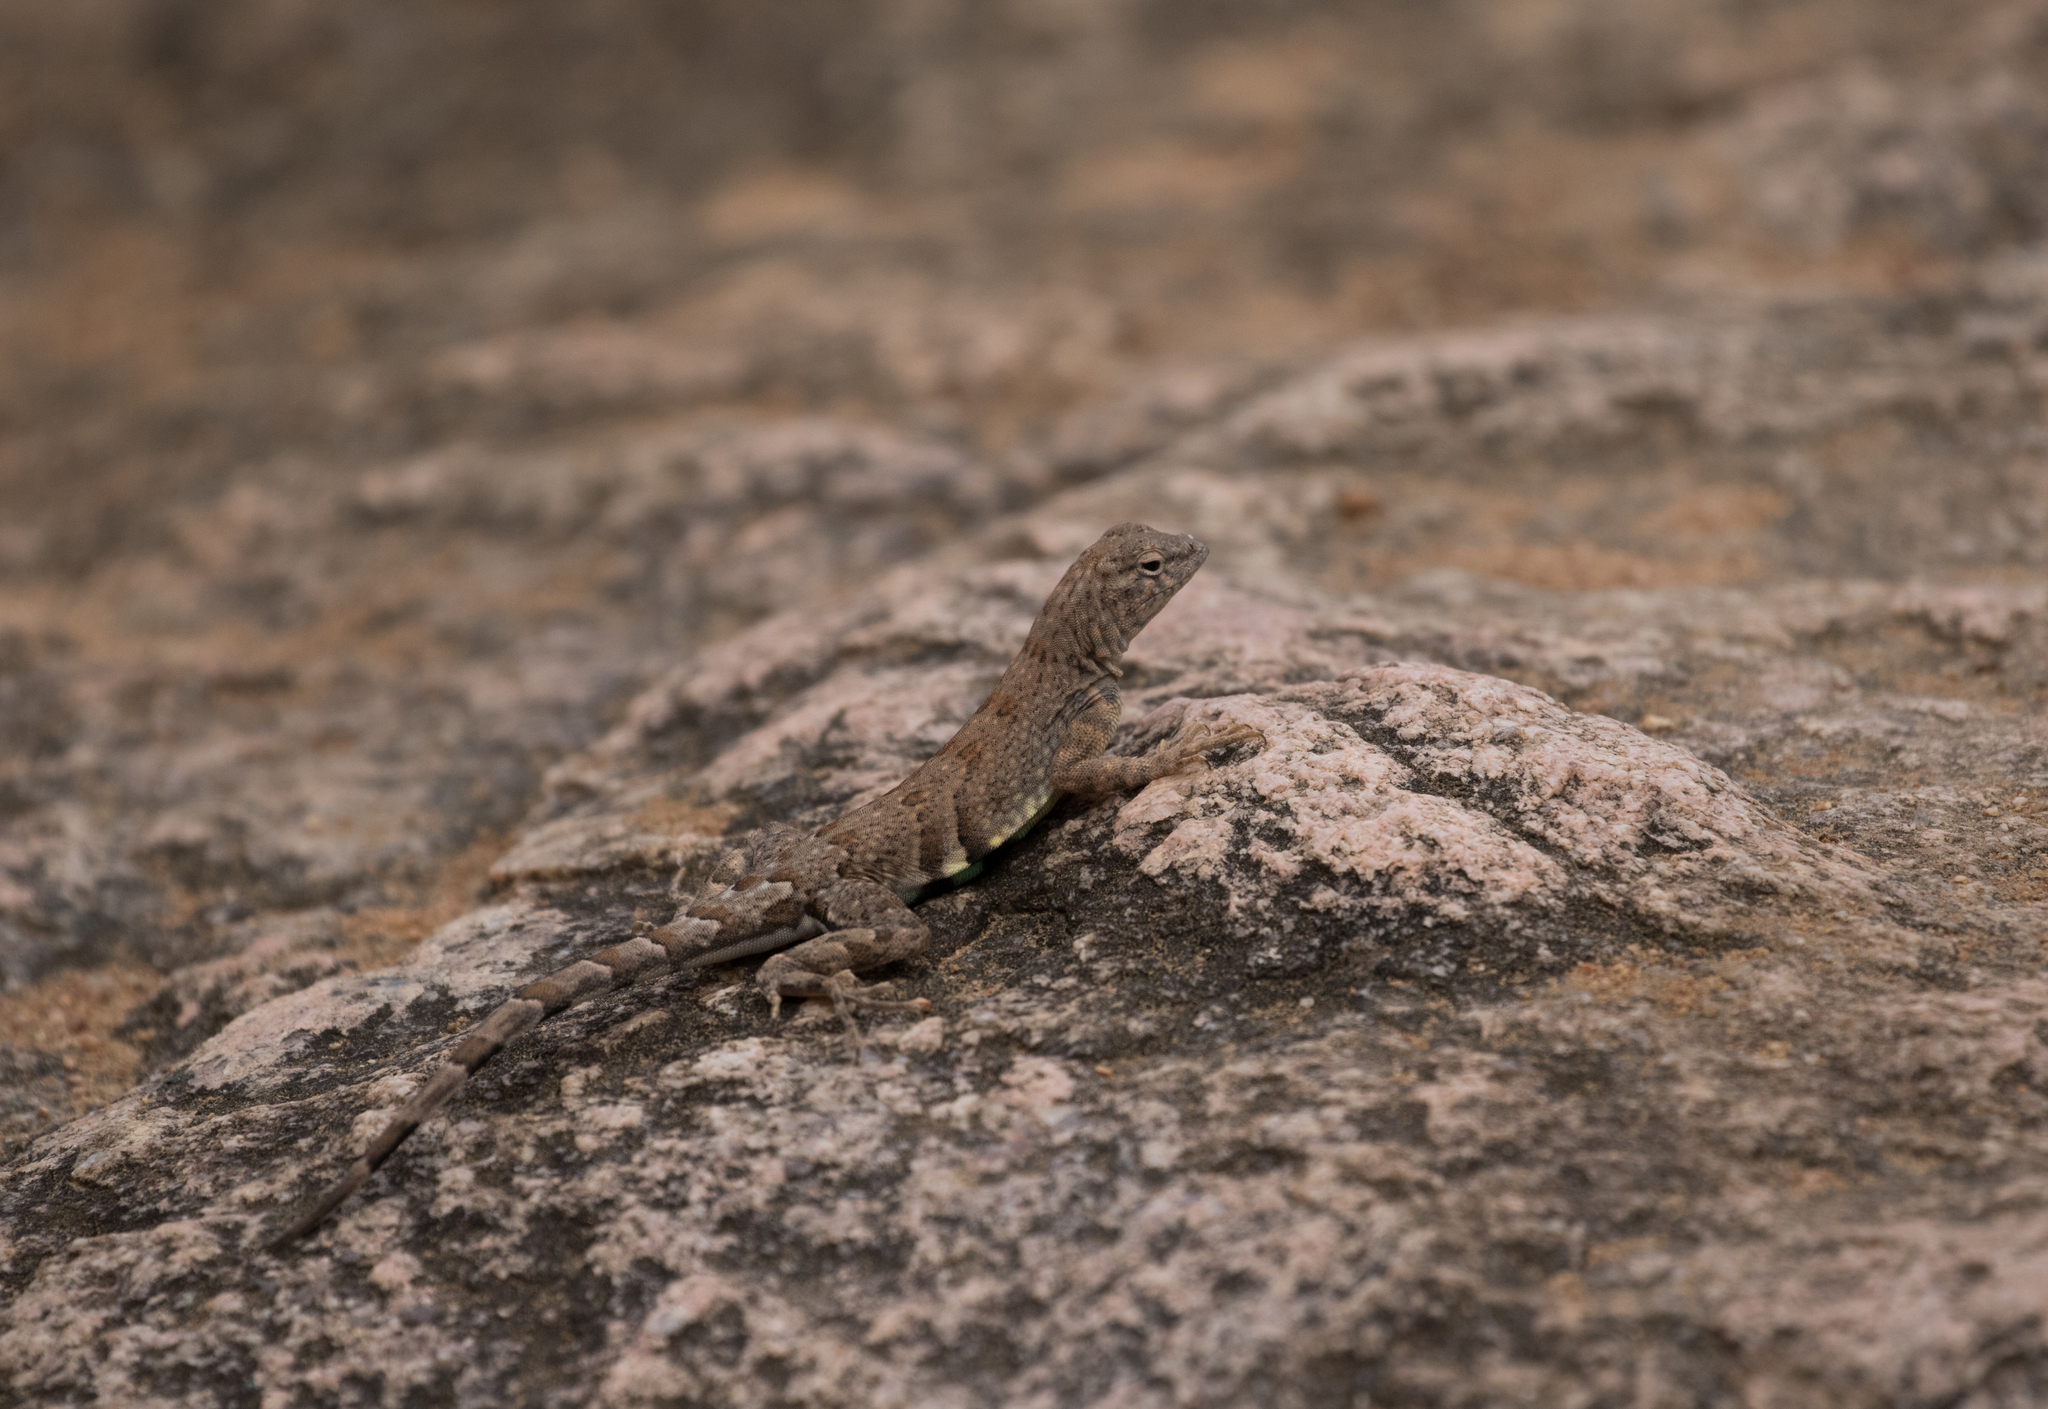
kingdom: Animalia
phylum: Chordata
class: Squamata
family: Phrynosomatidae
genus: Cophosaurus
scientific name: Cophosaurus texanus
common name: Greater earless lizard
